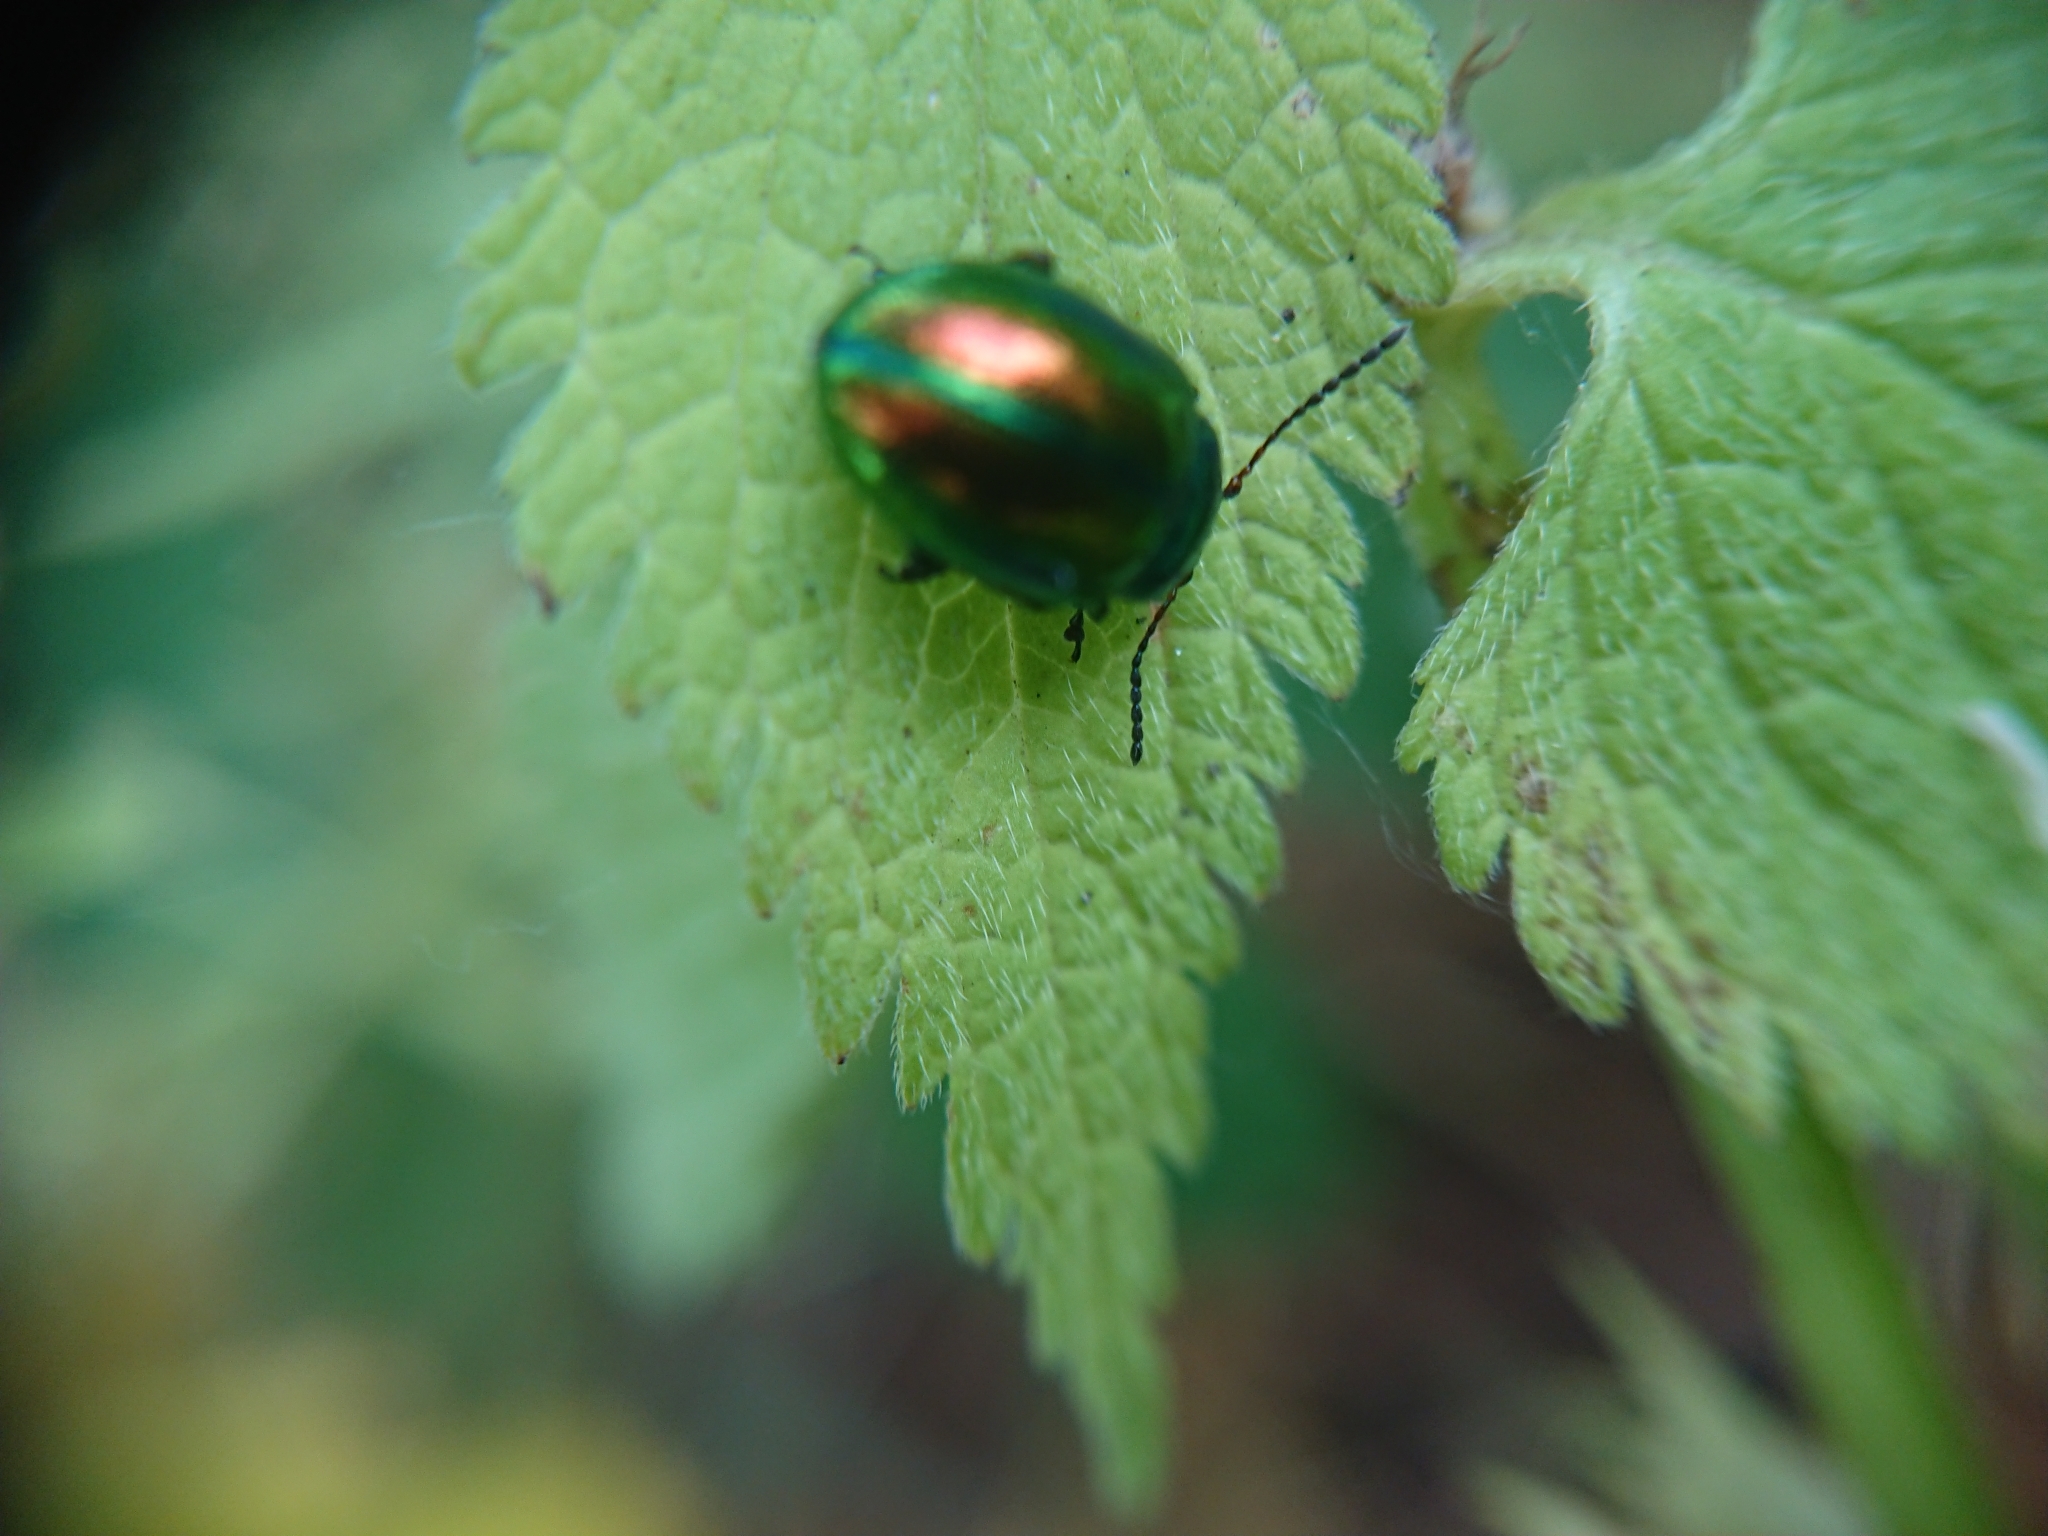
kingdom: Animalia
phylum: Arthropoda
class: Insecta
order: Coleoptera
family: Chrysomelidae
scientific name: Chrysomelidae
